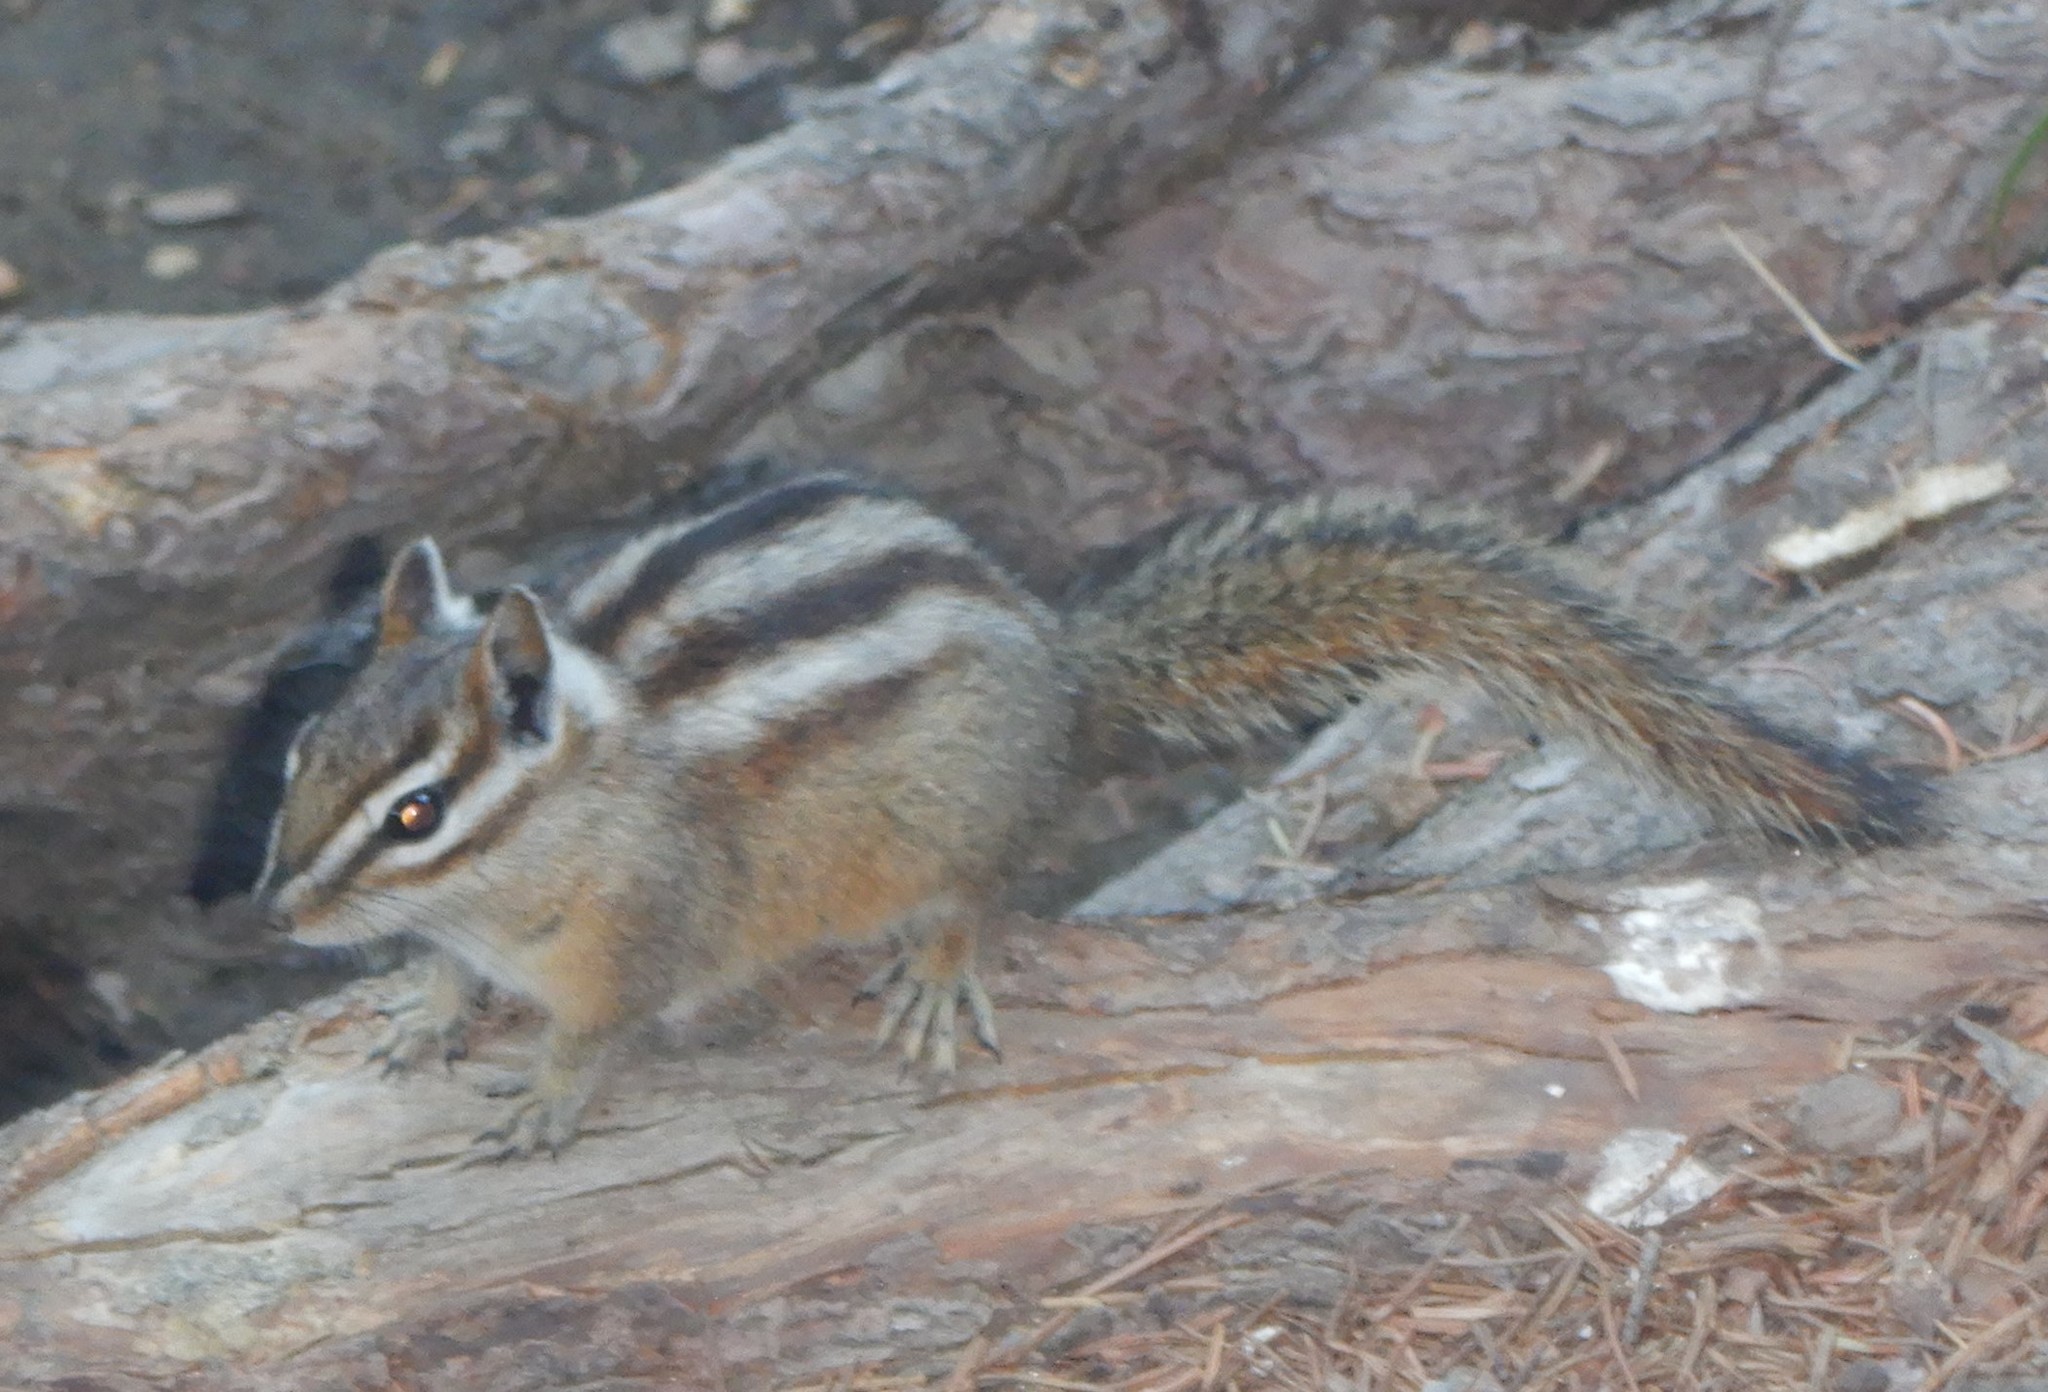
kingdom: Animalia
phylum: Chordata
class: Mammalia
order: Rodentia
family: Sciuridae
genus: Tamias
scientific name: Tamias minimus
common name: Least chipmunk
